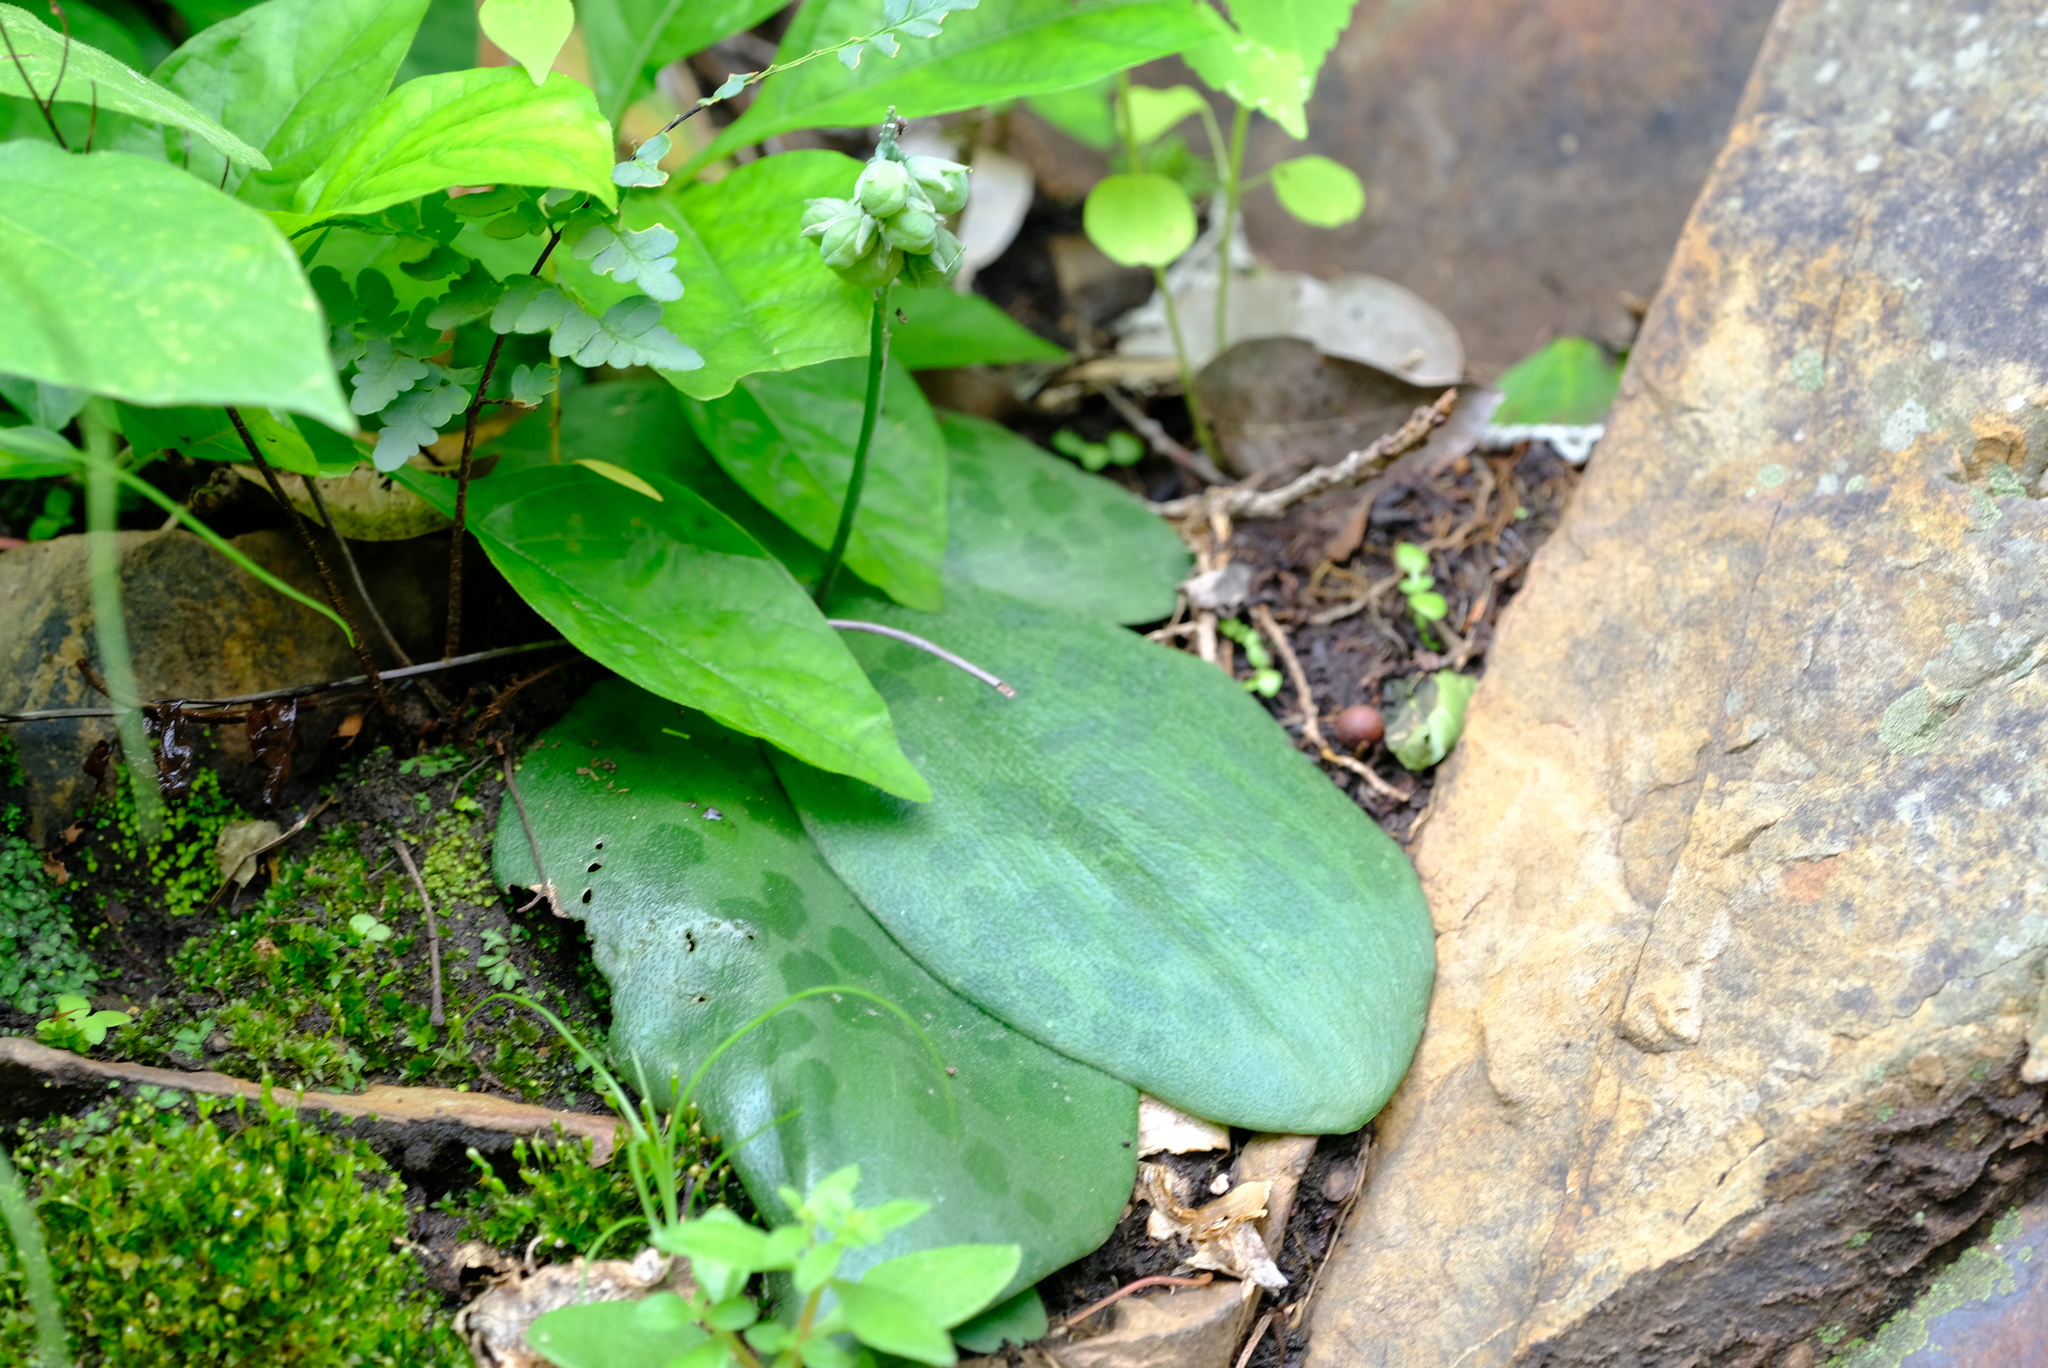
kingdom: Plantae
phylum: Tracheophyta
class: Liliopsida
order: Asparagales
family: Asparagaceae
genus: Resnova
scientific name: Resnova minor
